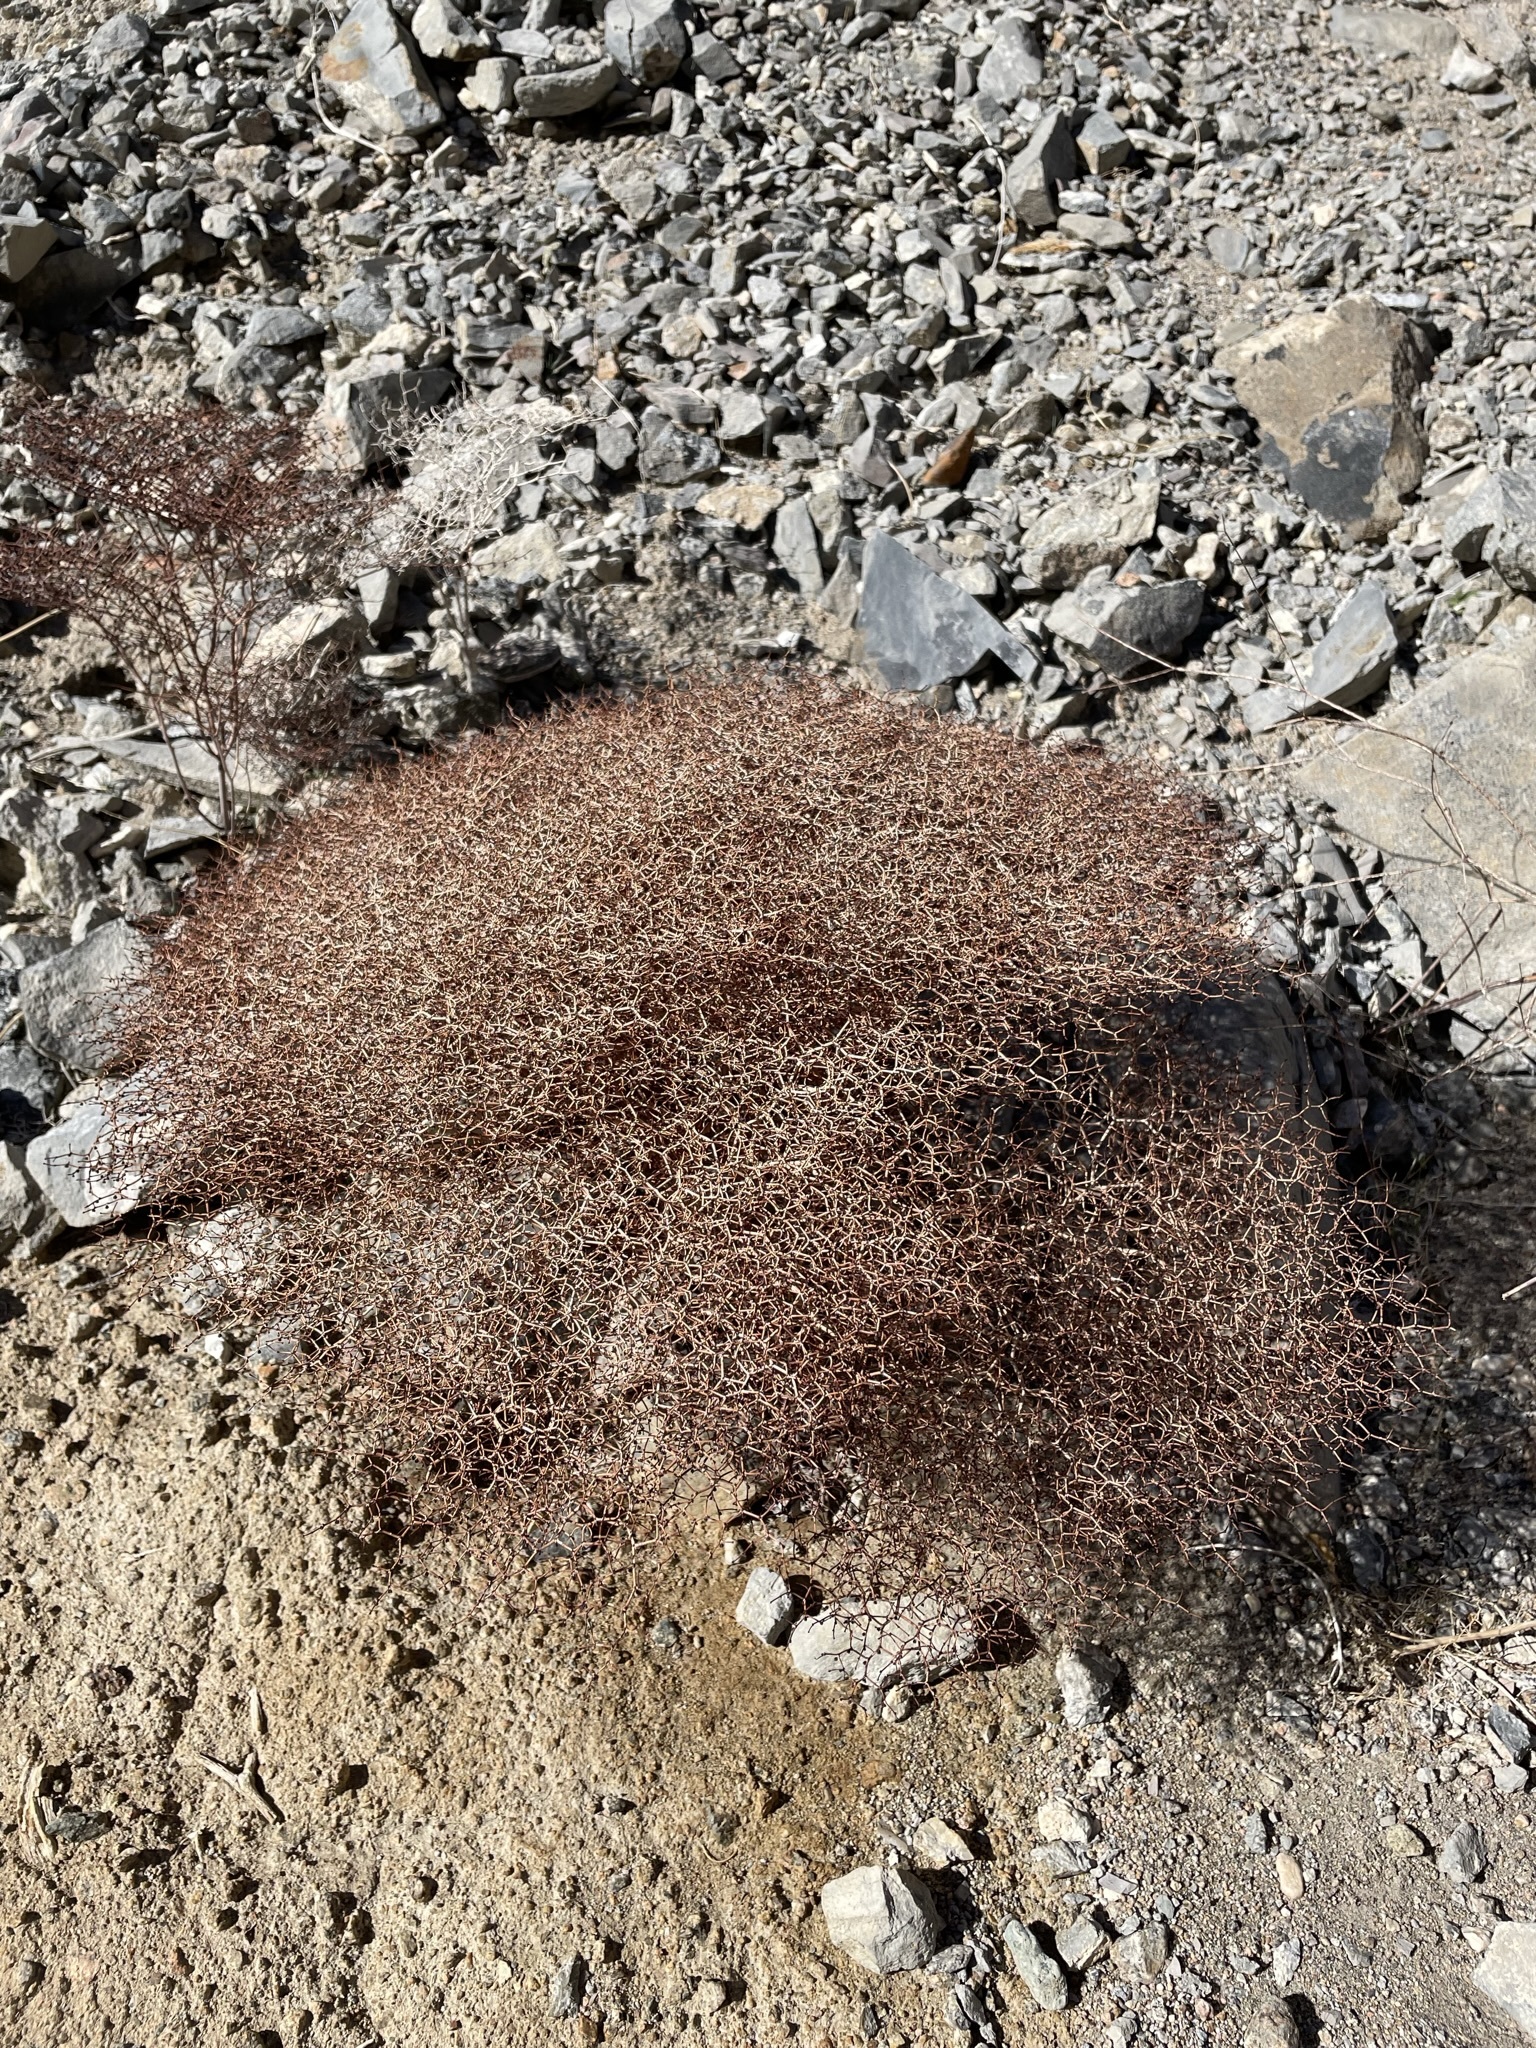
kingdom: Plantae
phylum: Tracheophyta
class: Magnoliopsida
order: Caryophyllales
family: Polygonaceae
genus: Eriogonum
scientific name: Eriogonum rixfordii
